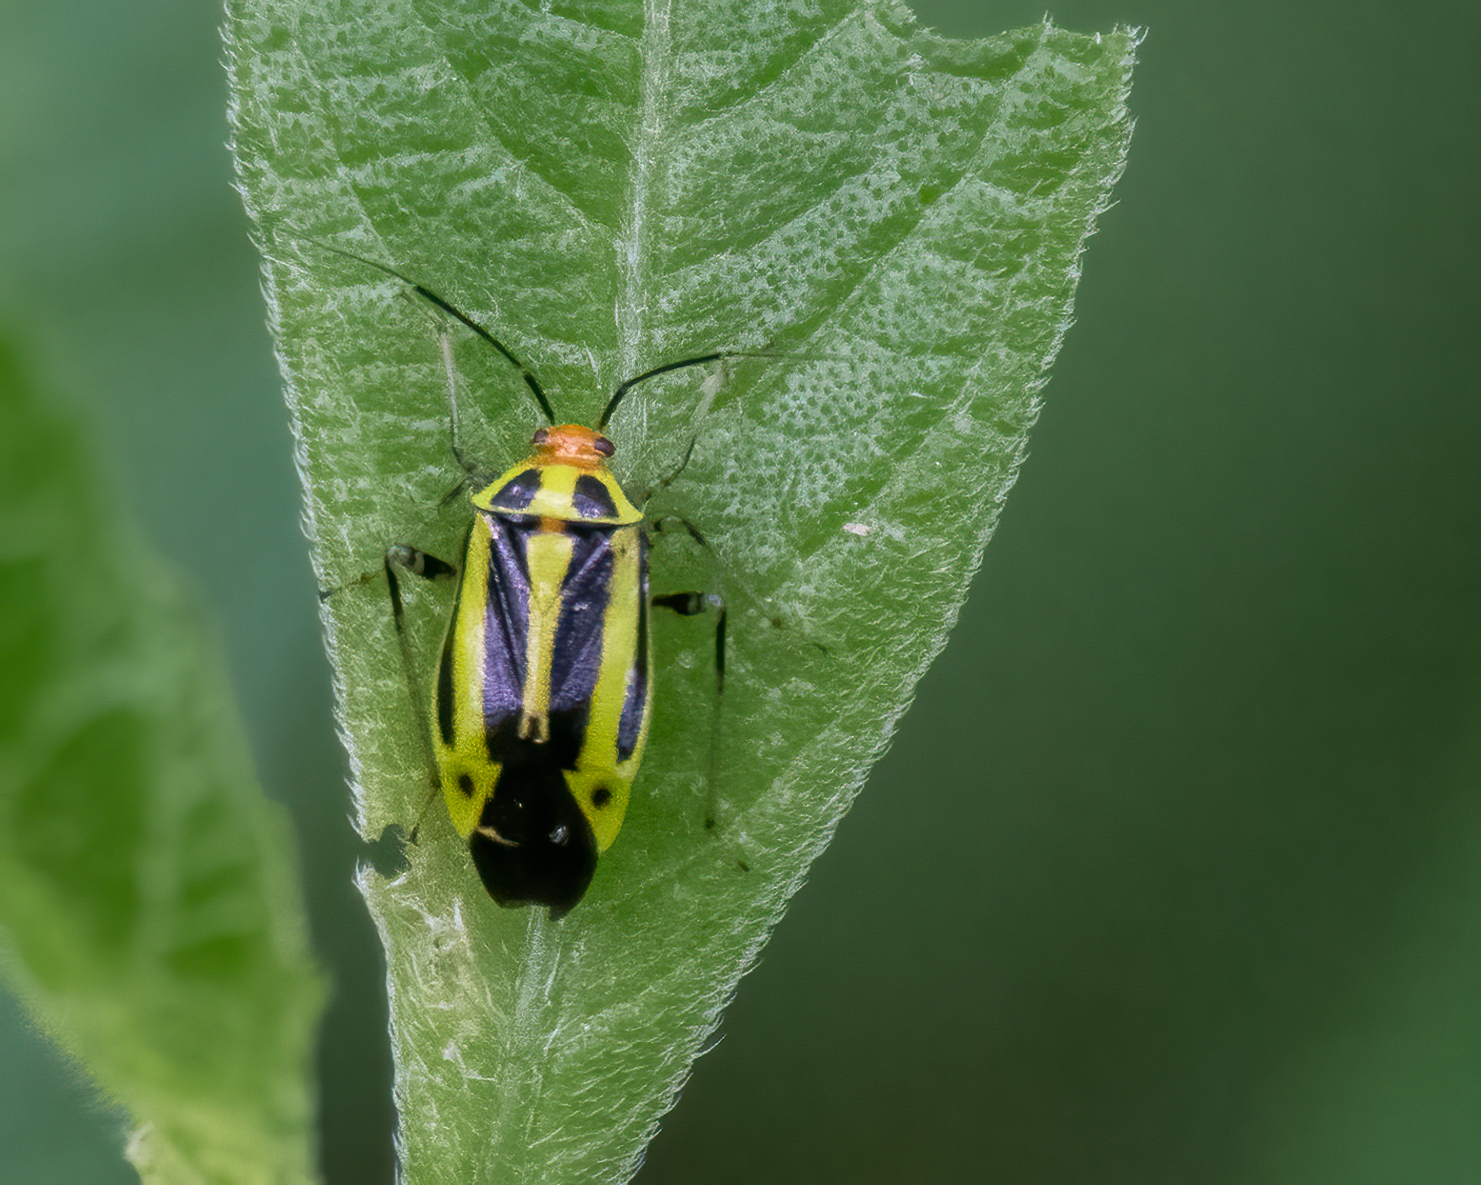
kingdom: Animalia
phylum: Arthropoda
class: Insecta
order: Hemiptera
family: Miridae
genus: Poecilocapsus
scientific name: Poecilocapsus lineatus
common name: Four-lined plant bug
